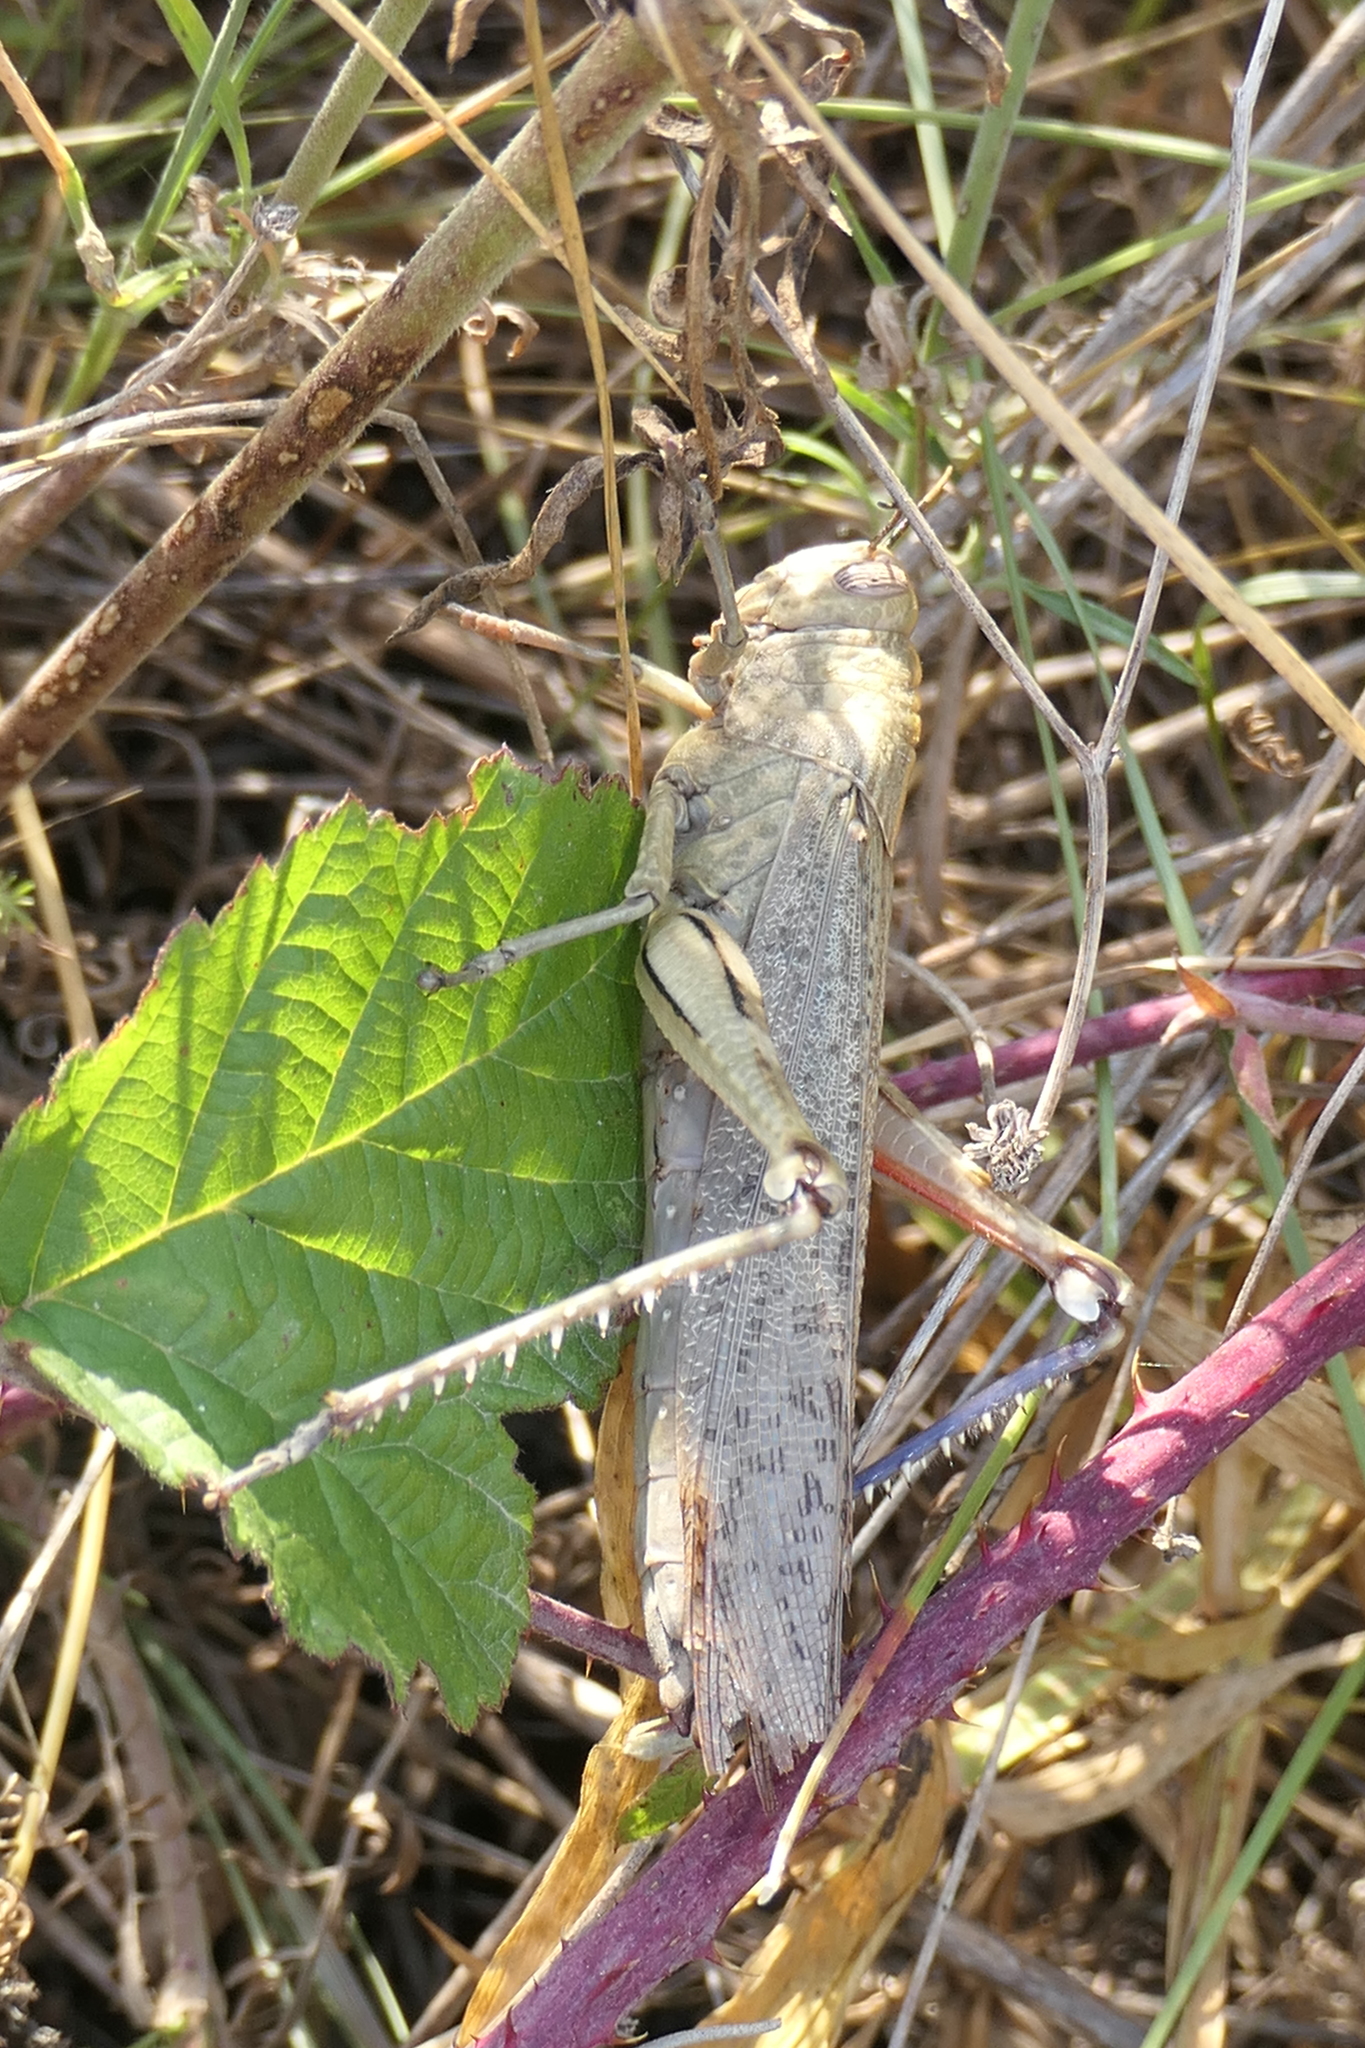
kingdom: Animalia
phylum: Arthropoda
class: Insecta
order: Orthoptera
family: Acrididae
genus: Anacridium
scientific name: Anacridium aegyptium
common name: Egyptian grasshopper
